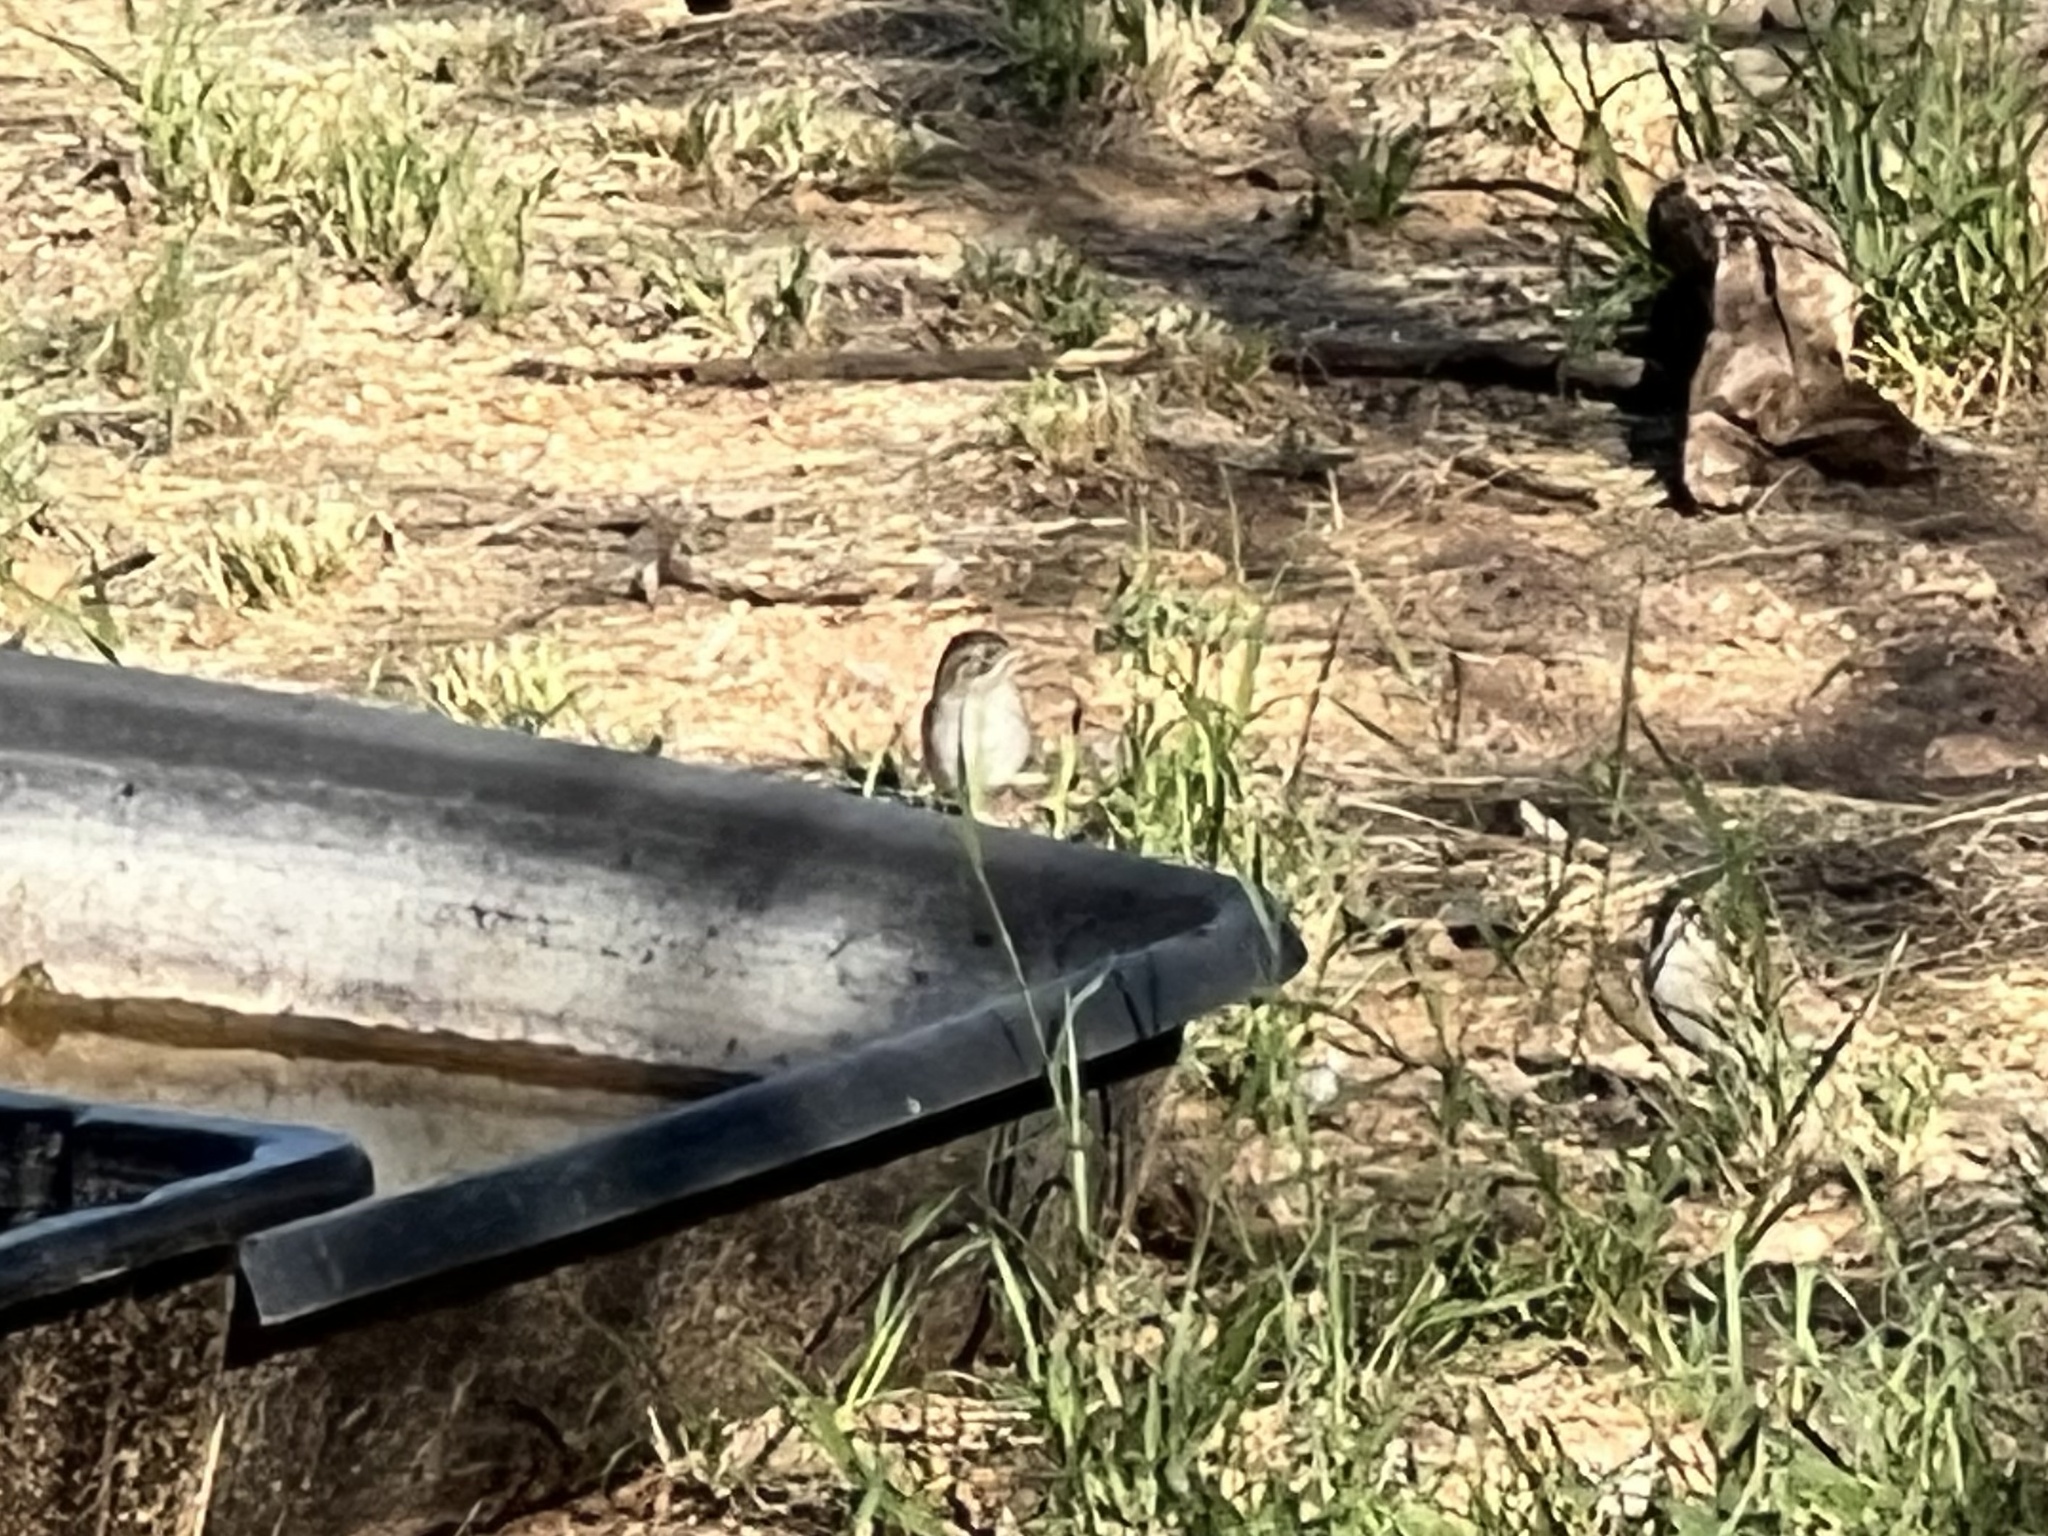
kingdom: Animalia
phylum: Chordata
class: Aves
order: Passeriformes
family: Passerellidae
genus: Spizella
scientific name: Spizella pallida
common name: Clay-colored sparrow
